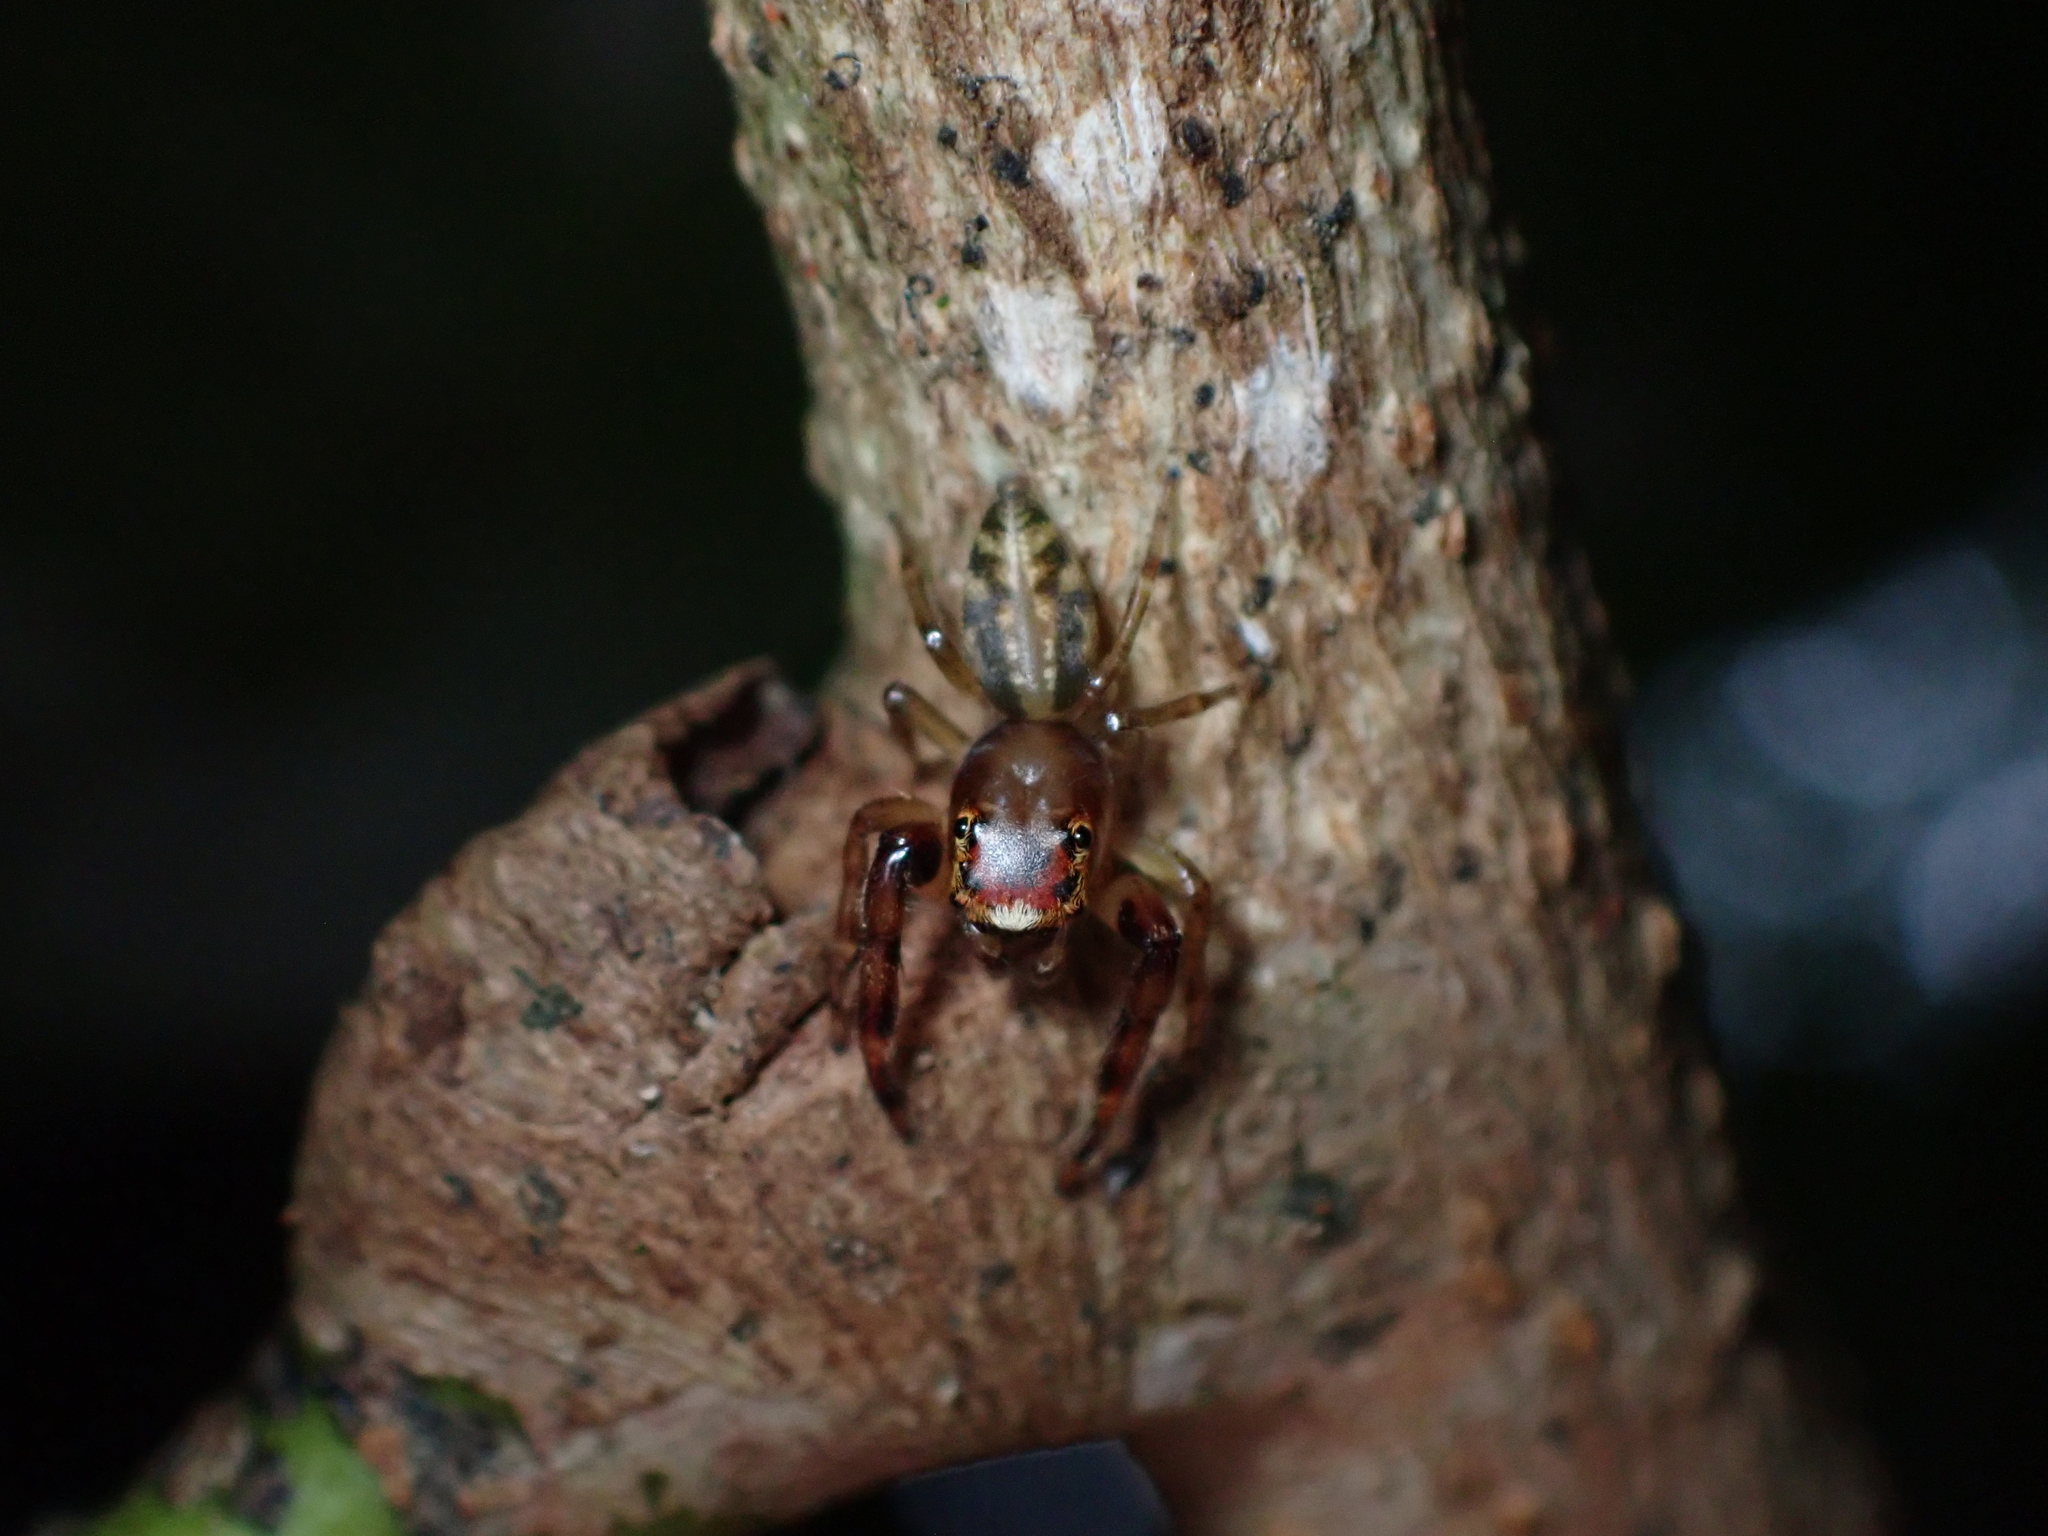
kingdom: Animalia
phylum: Arthropoda
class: Arachnida
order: Araneae
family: Salticidae
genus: Trite
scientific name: Trite mustilina
